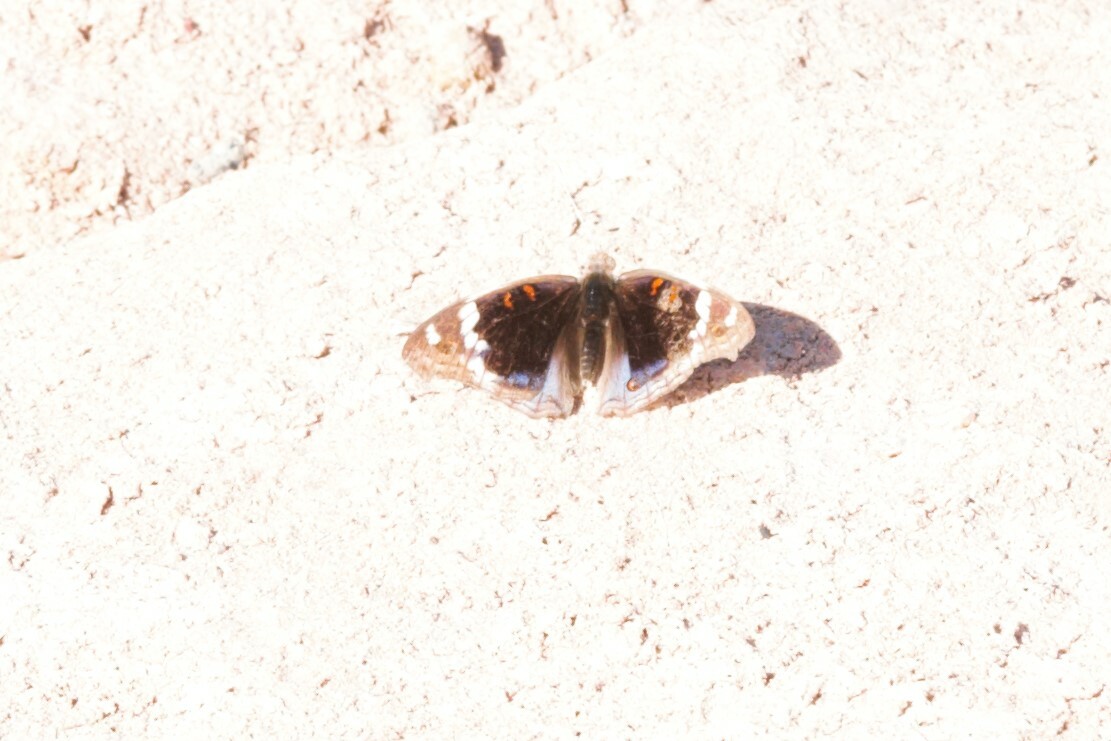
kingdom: Animalia
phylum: Arthropoda
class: Insecta
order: Lepidoptera
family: Nymphalidae
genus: Junonia
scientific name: Junonia orithya
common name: Blue pansy
